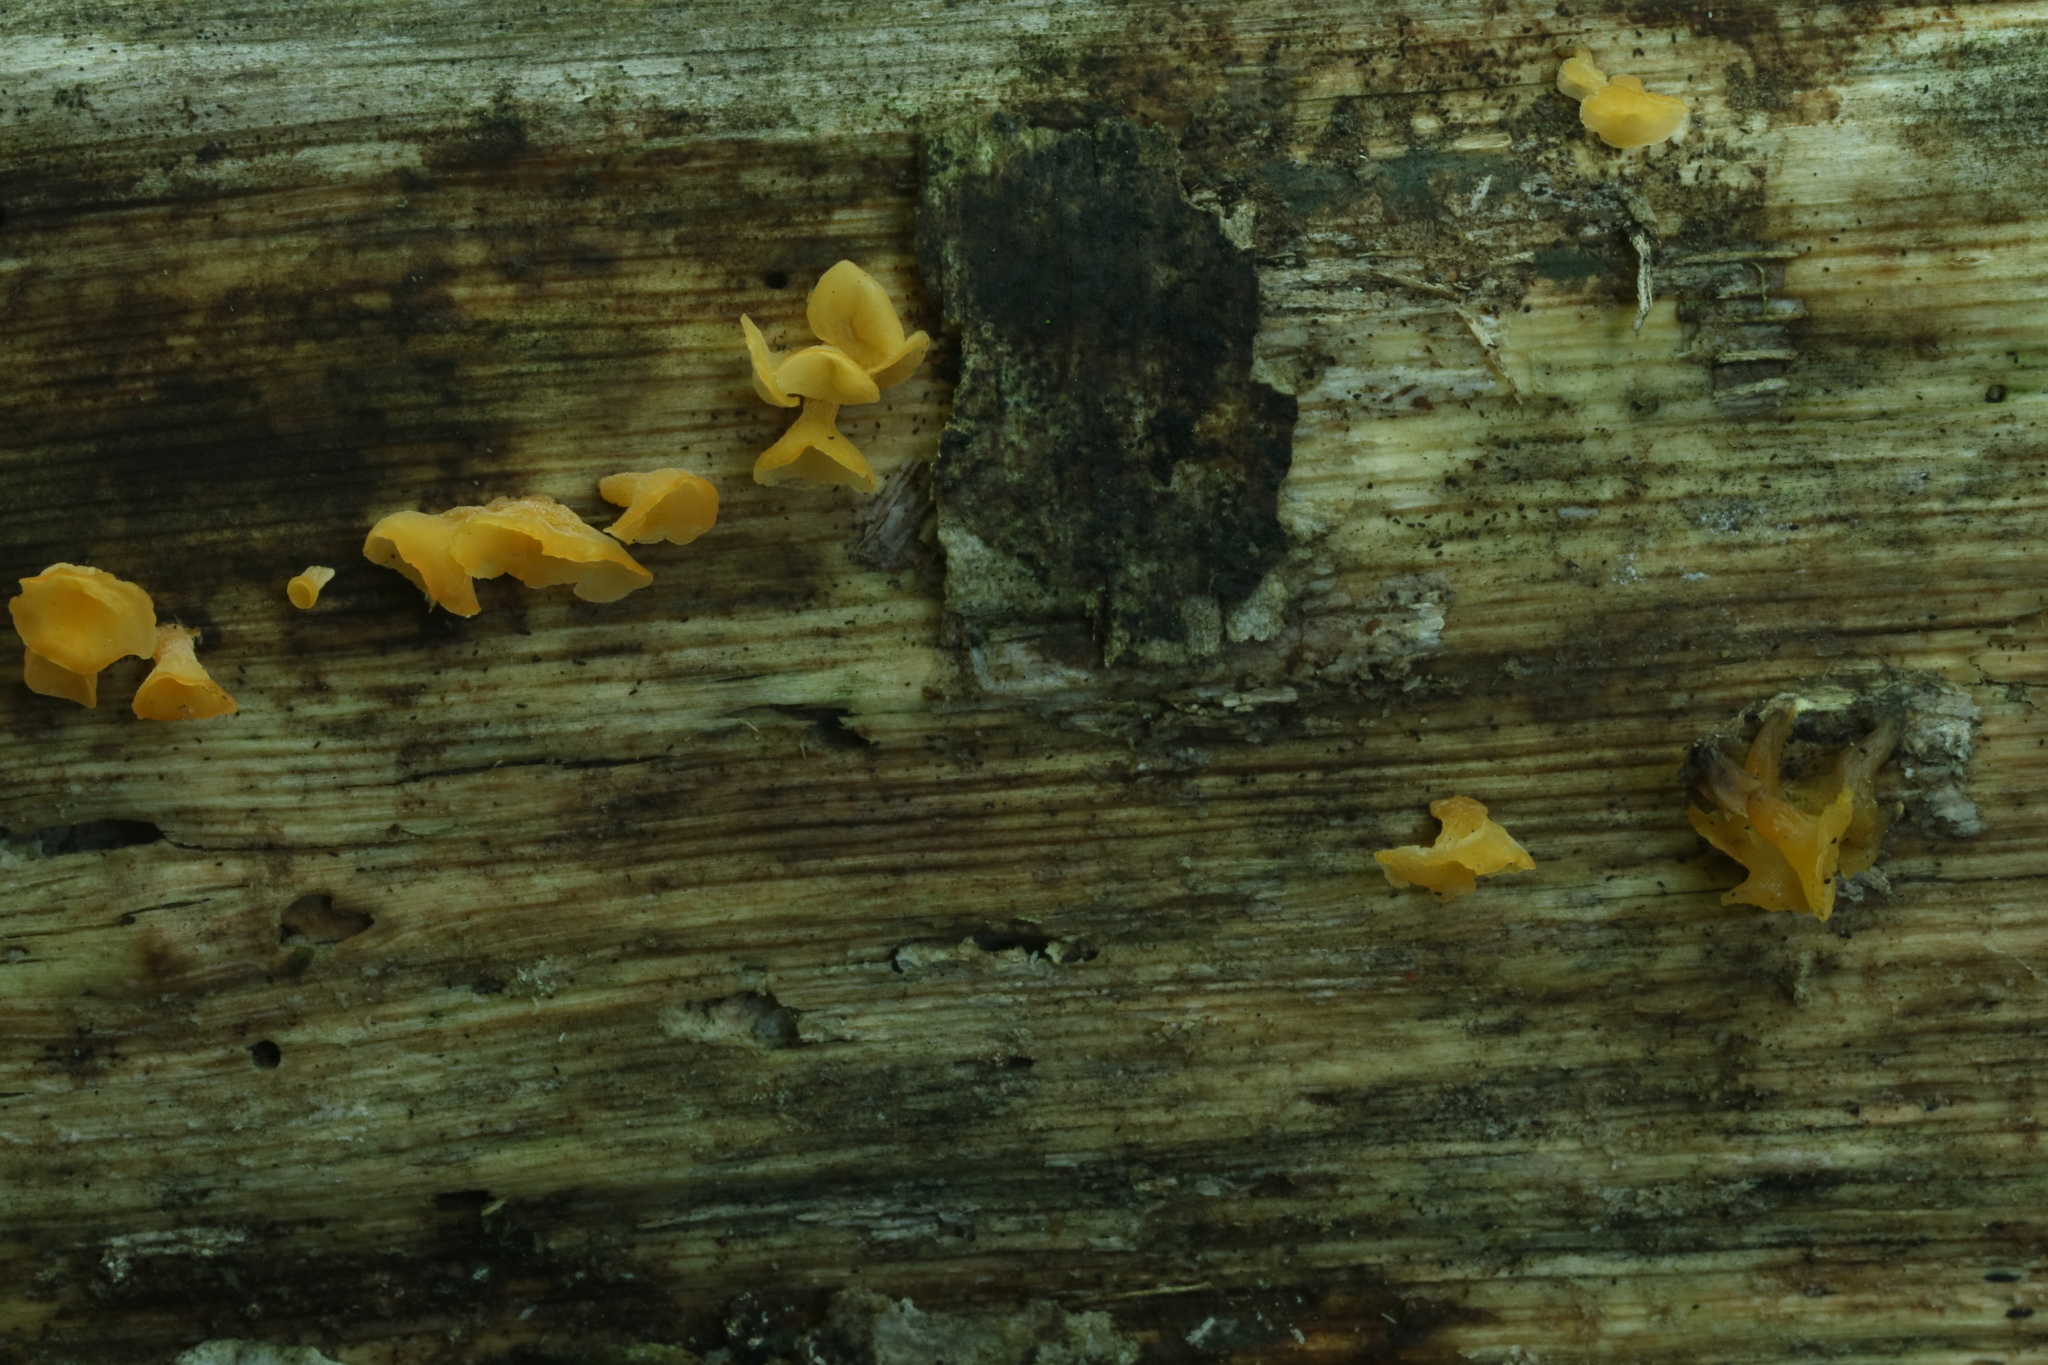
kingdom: Fungi
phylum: Basidiomycota
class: Dacrymycetes
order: Dacrymycetales
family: Dacrymycetaceae
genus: Guepiniopsis
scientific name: Guepiniopsis buccina
